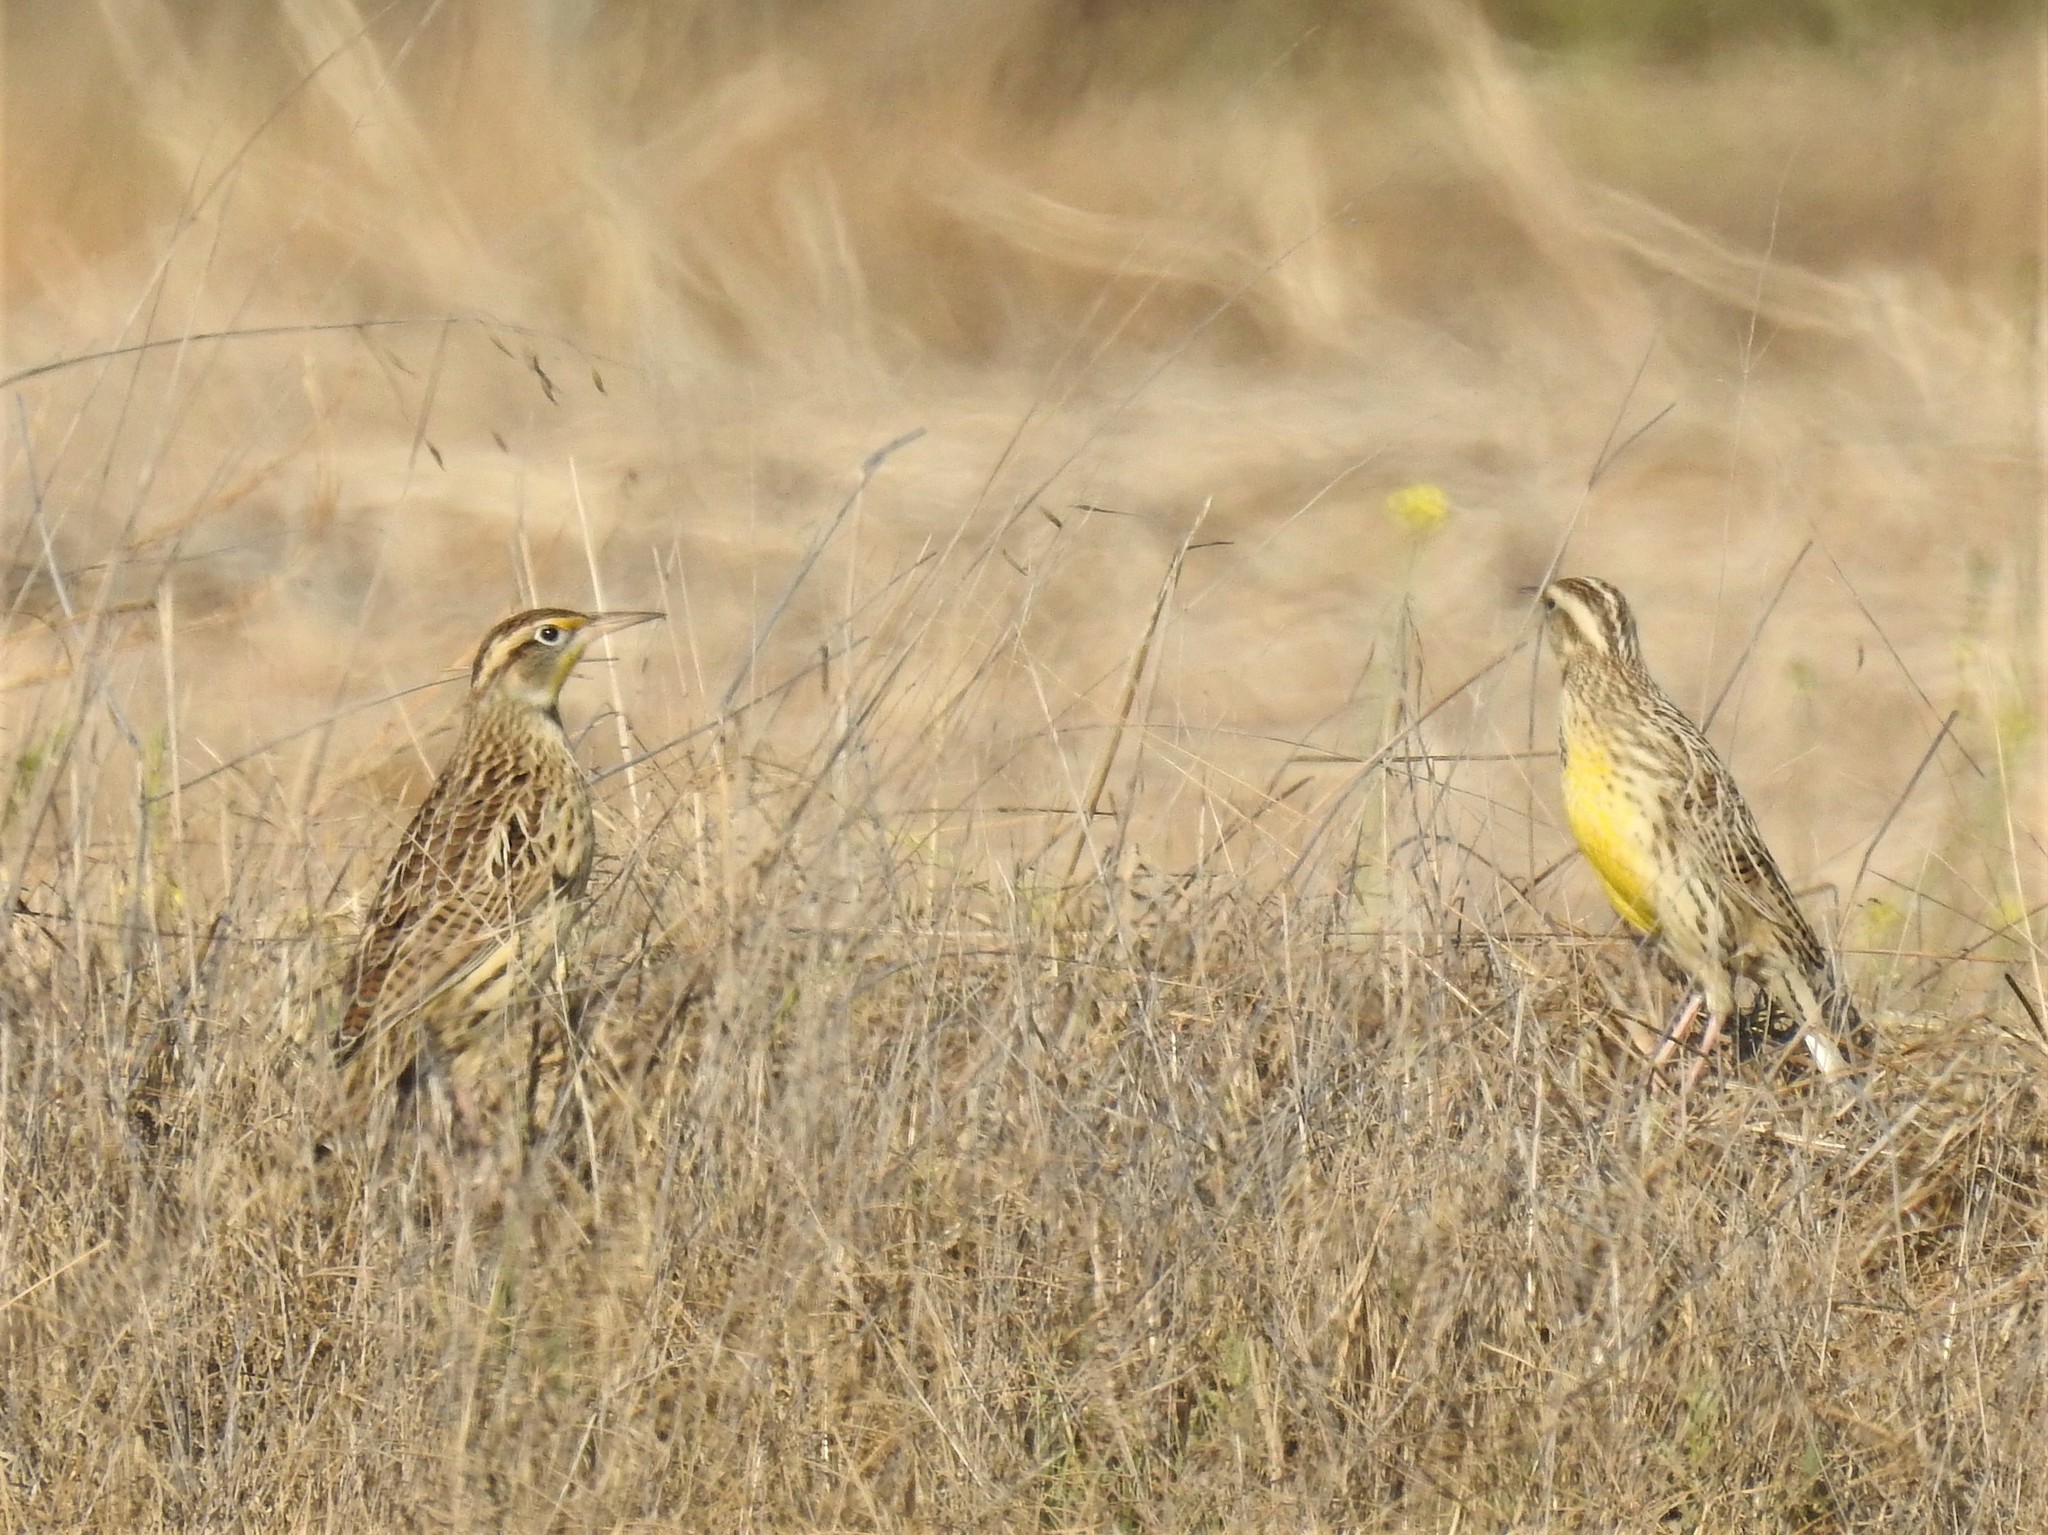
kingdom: Animalia
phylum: Chordata
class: Aves
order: Passeriformes
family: Icteridae
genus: Sturnella
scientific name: Sturnella neglecta
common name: Western meadowlark
